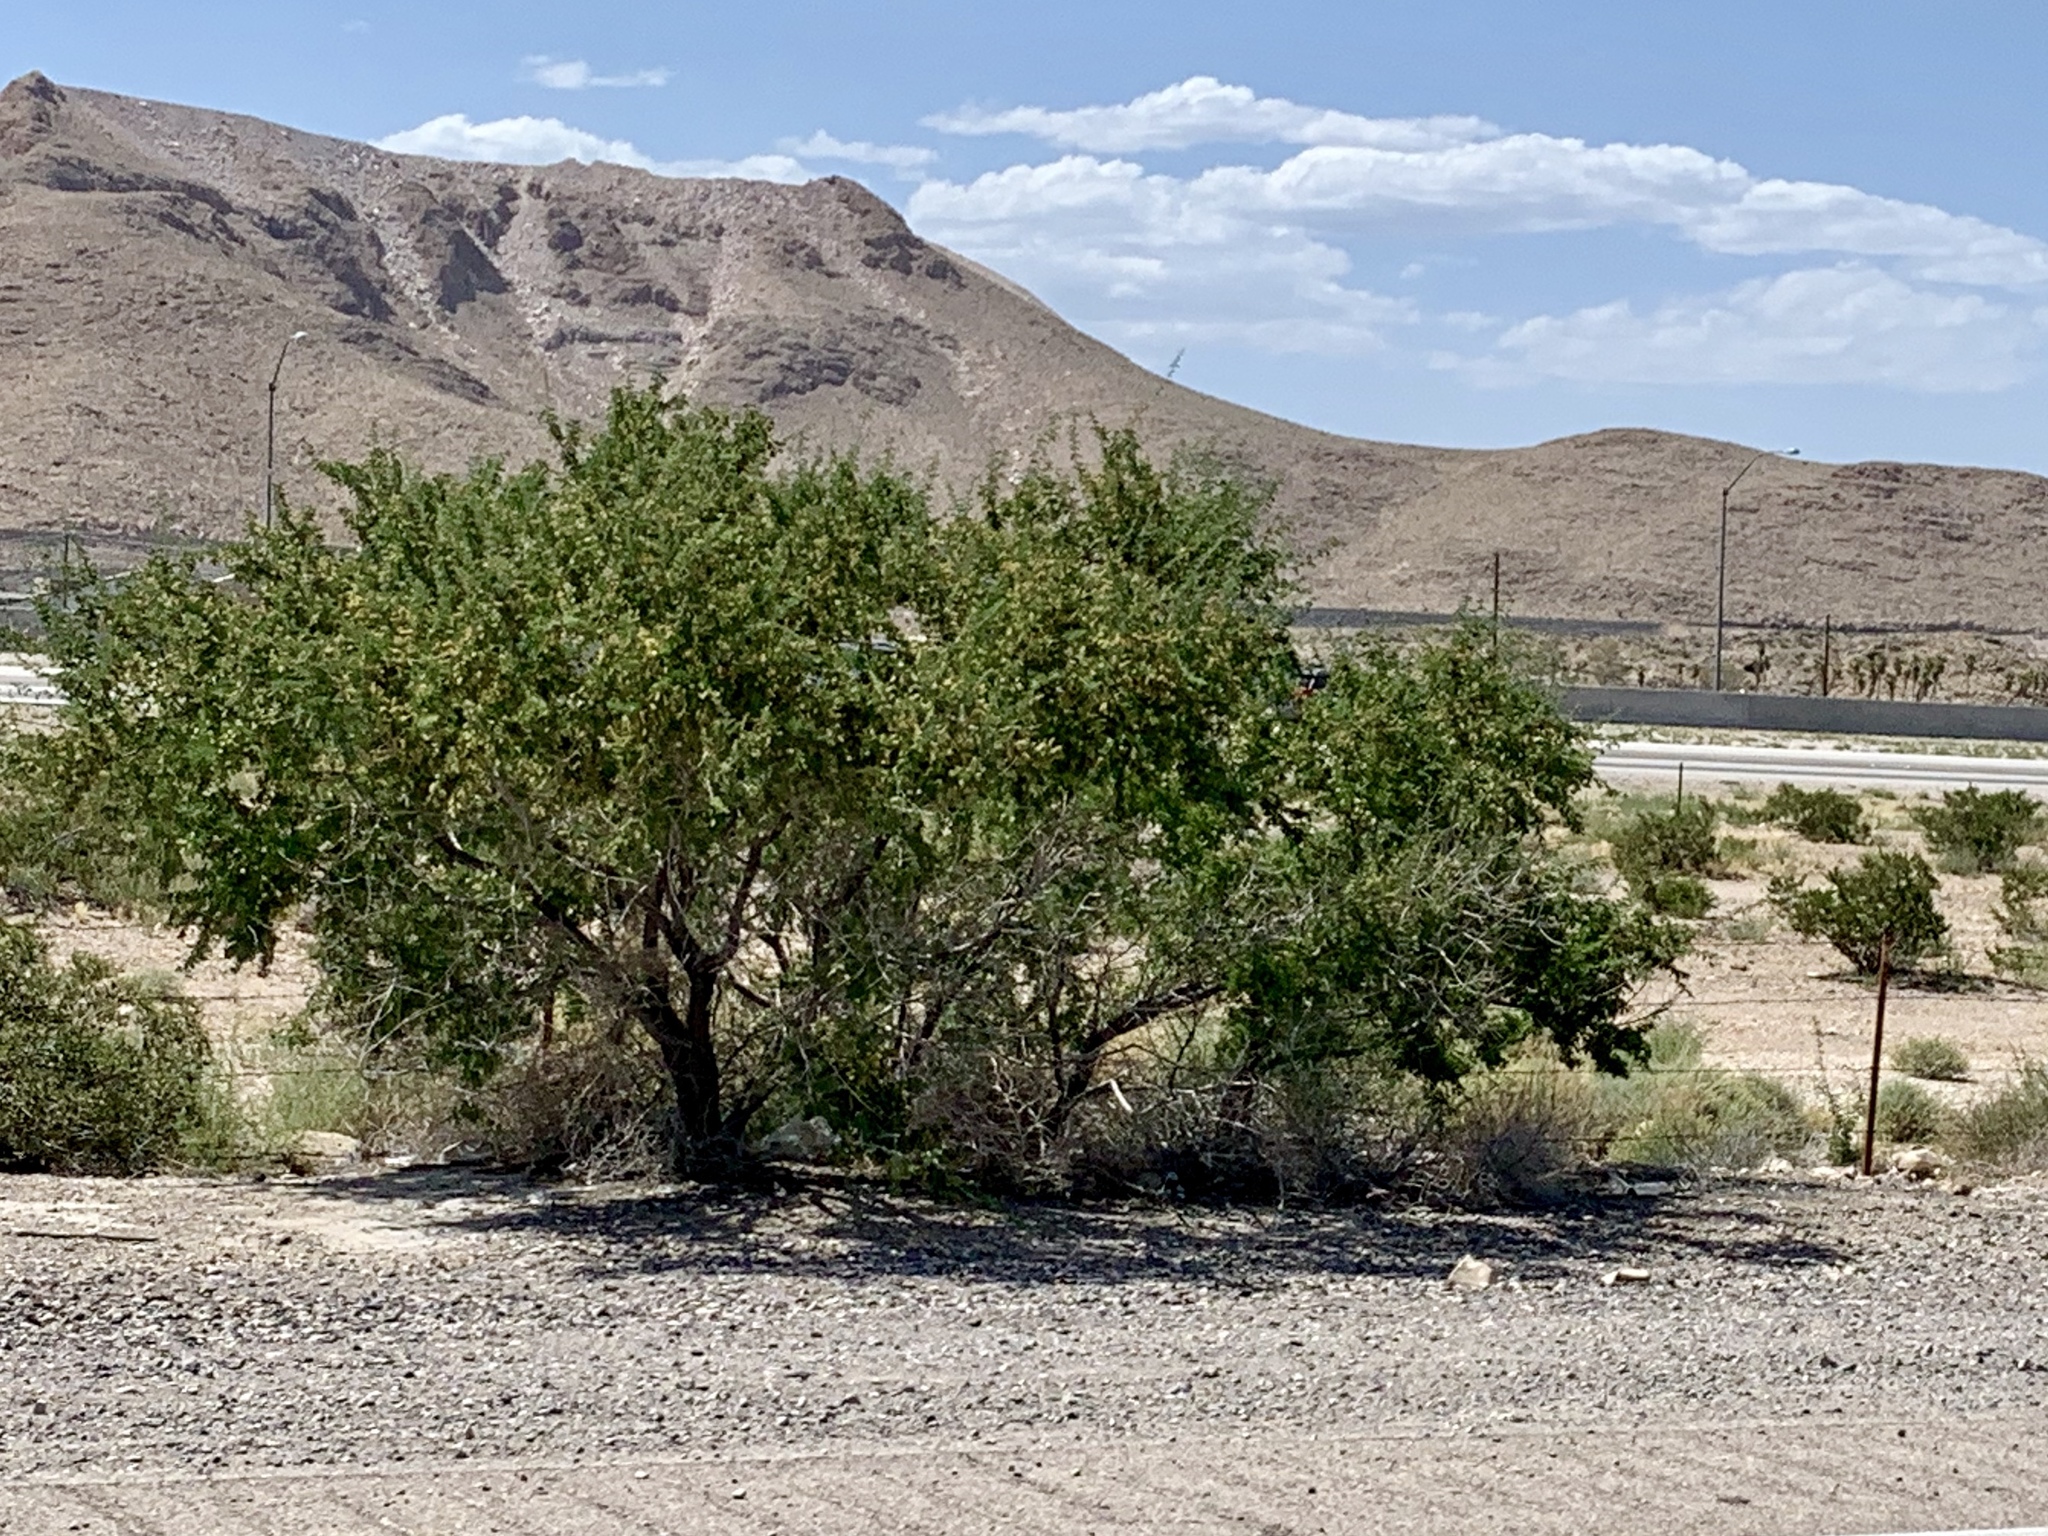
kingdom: Plantae
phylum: Tracheophyta
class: Magnoliopsida
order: Zygophyllales
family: Zygophyllaceae
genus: Larrea
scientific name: Larrea tridentata
